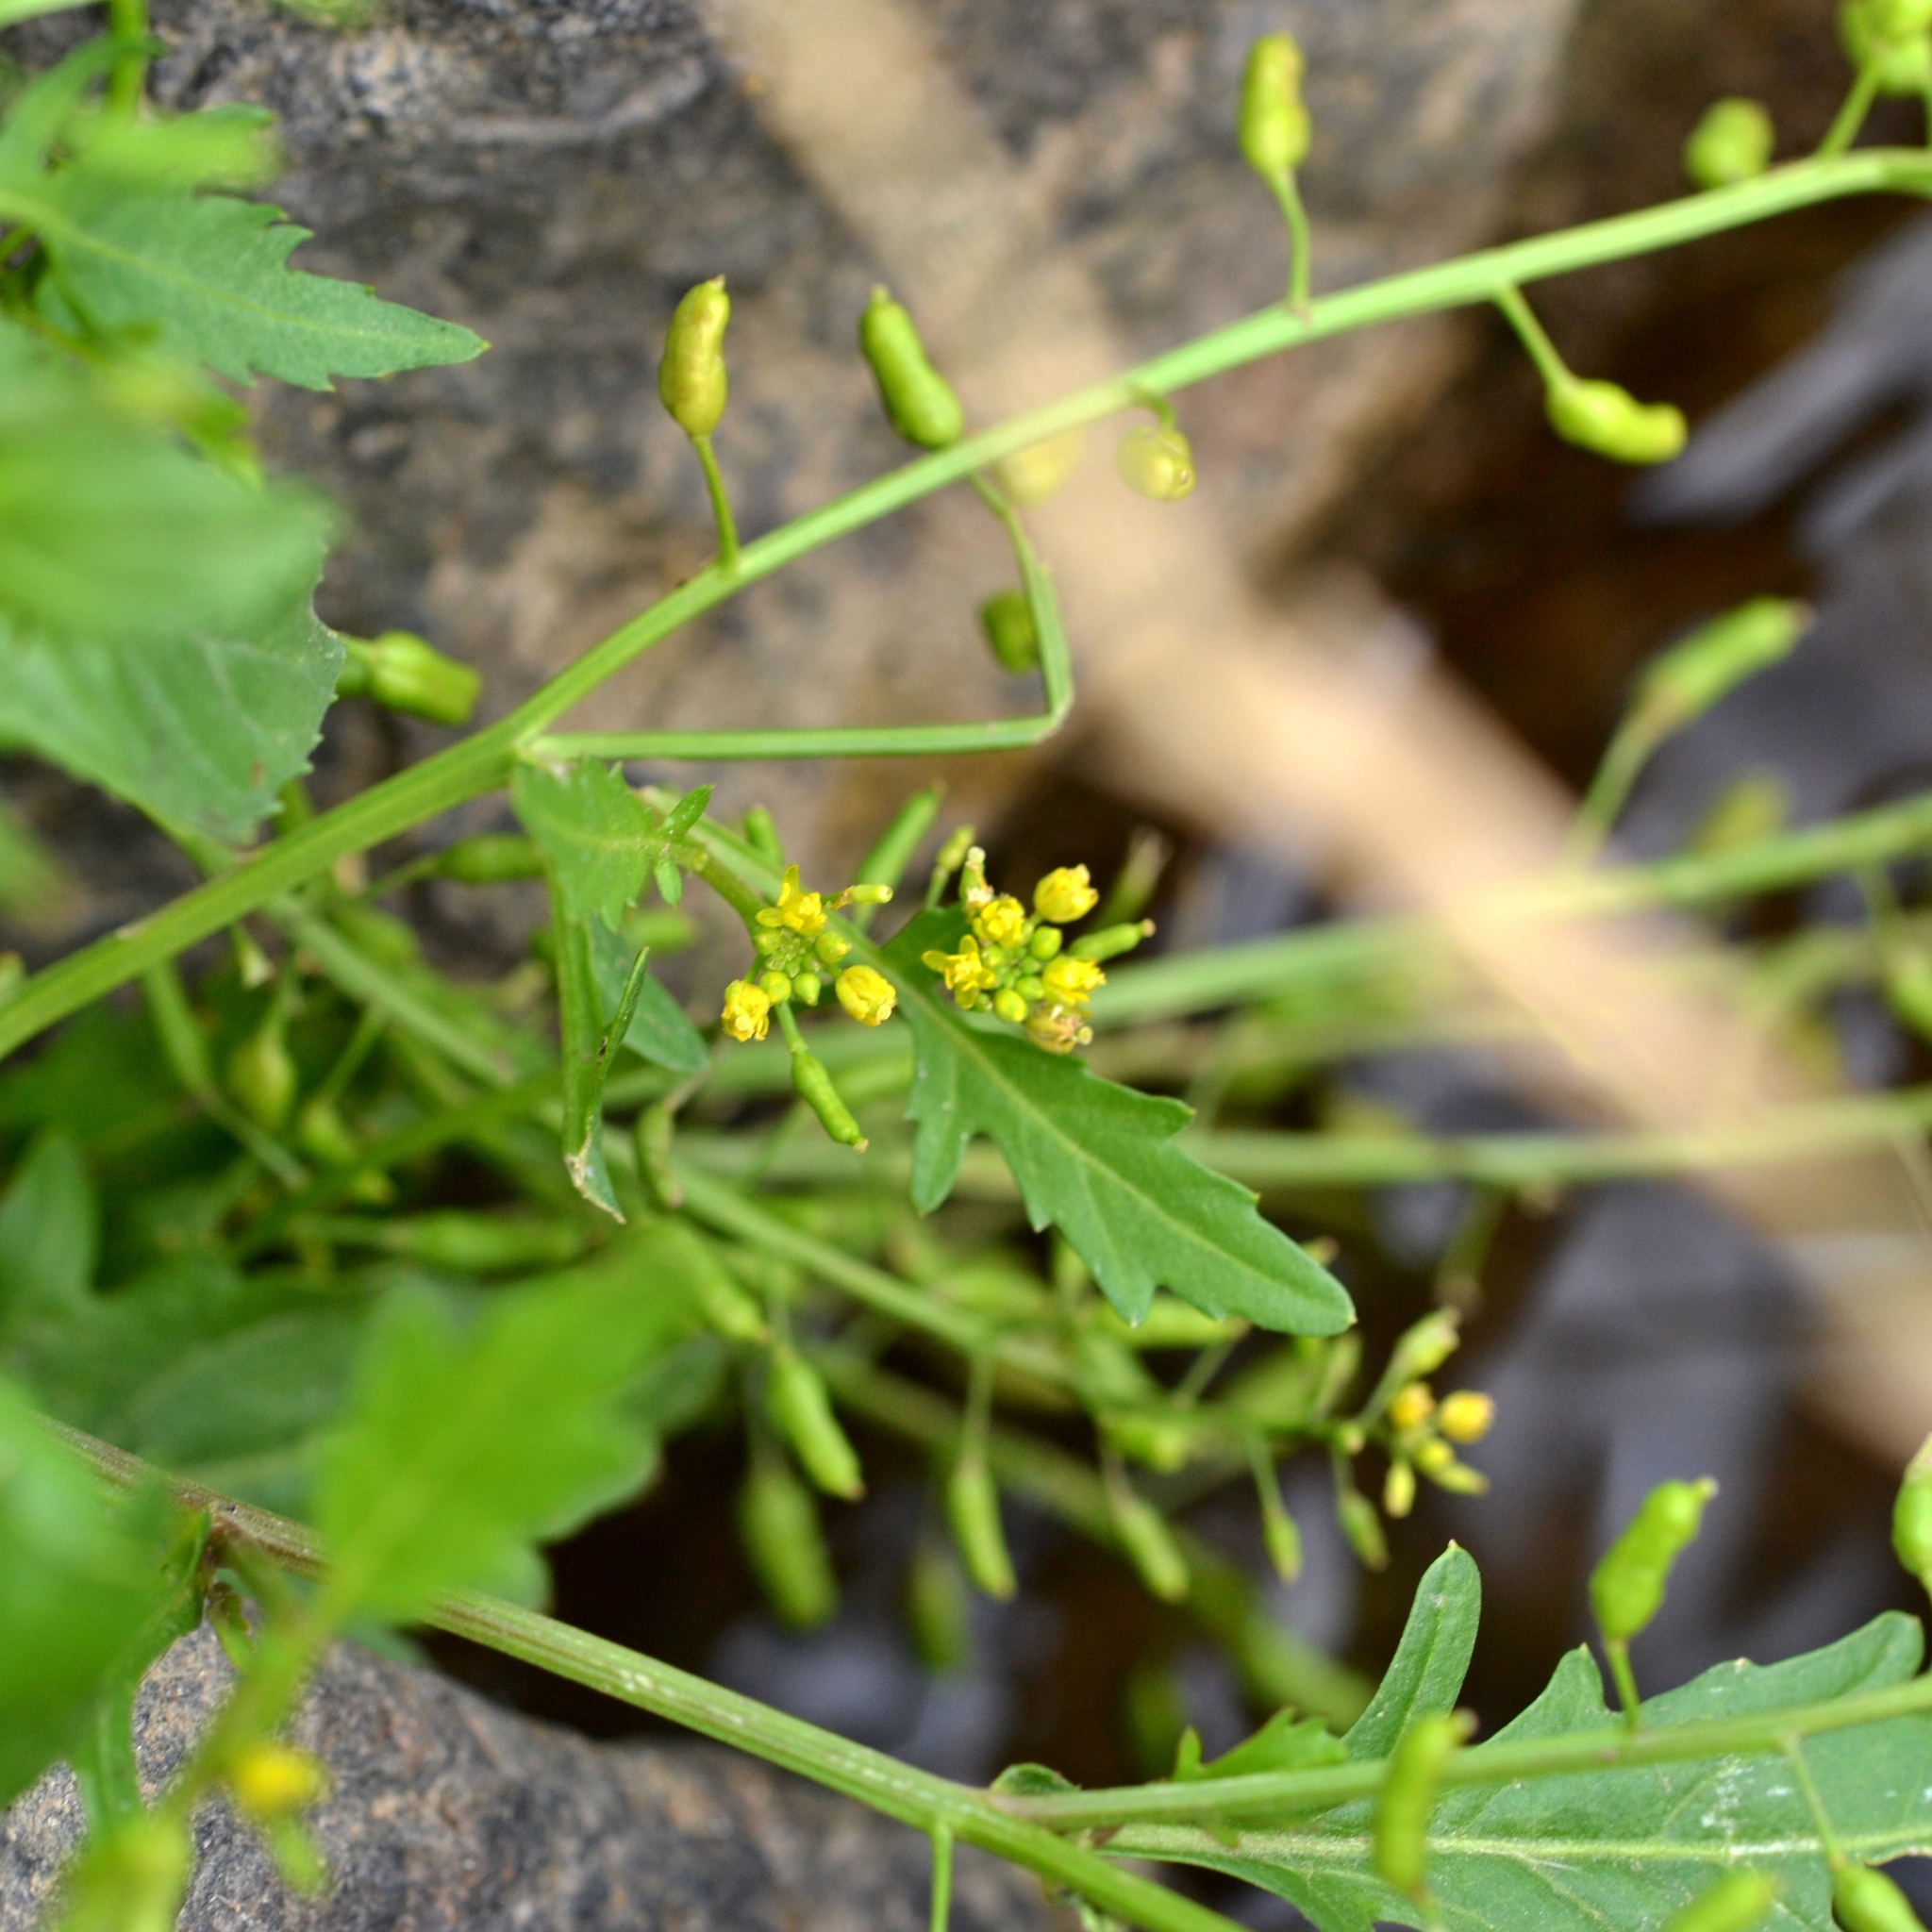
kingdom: Plantae
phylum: Tracheophyta
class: Magnoliopsida
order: Brassicales
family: Brassicaceae
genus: Rorippa
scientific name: Rorippa palustris
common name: Marsh yellow-cress
